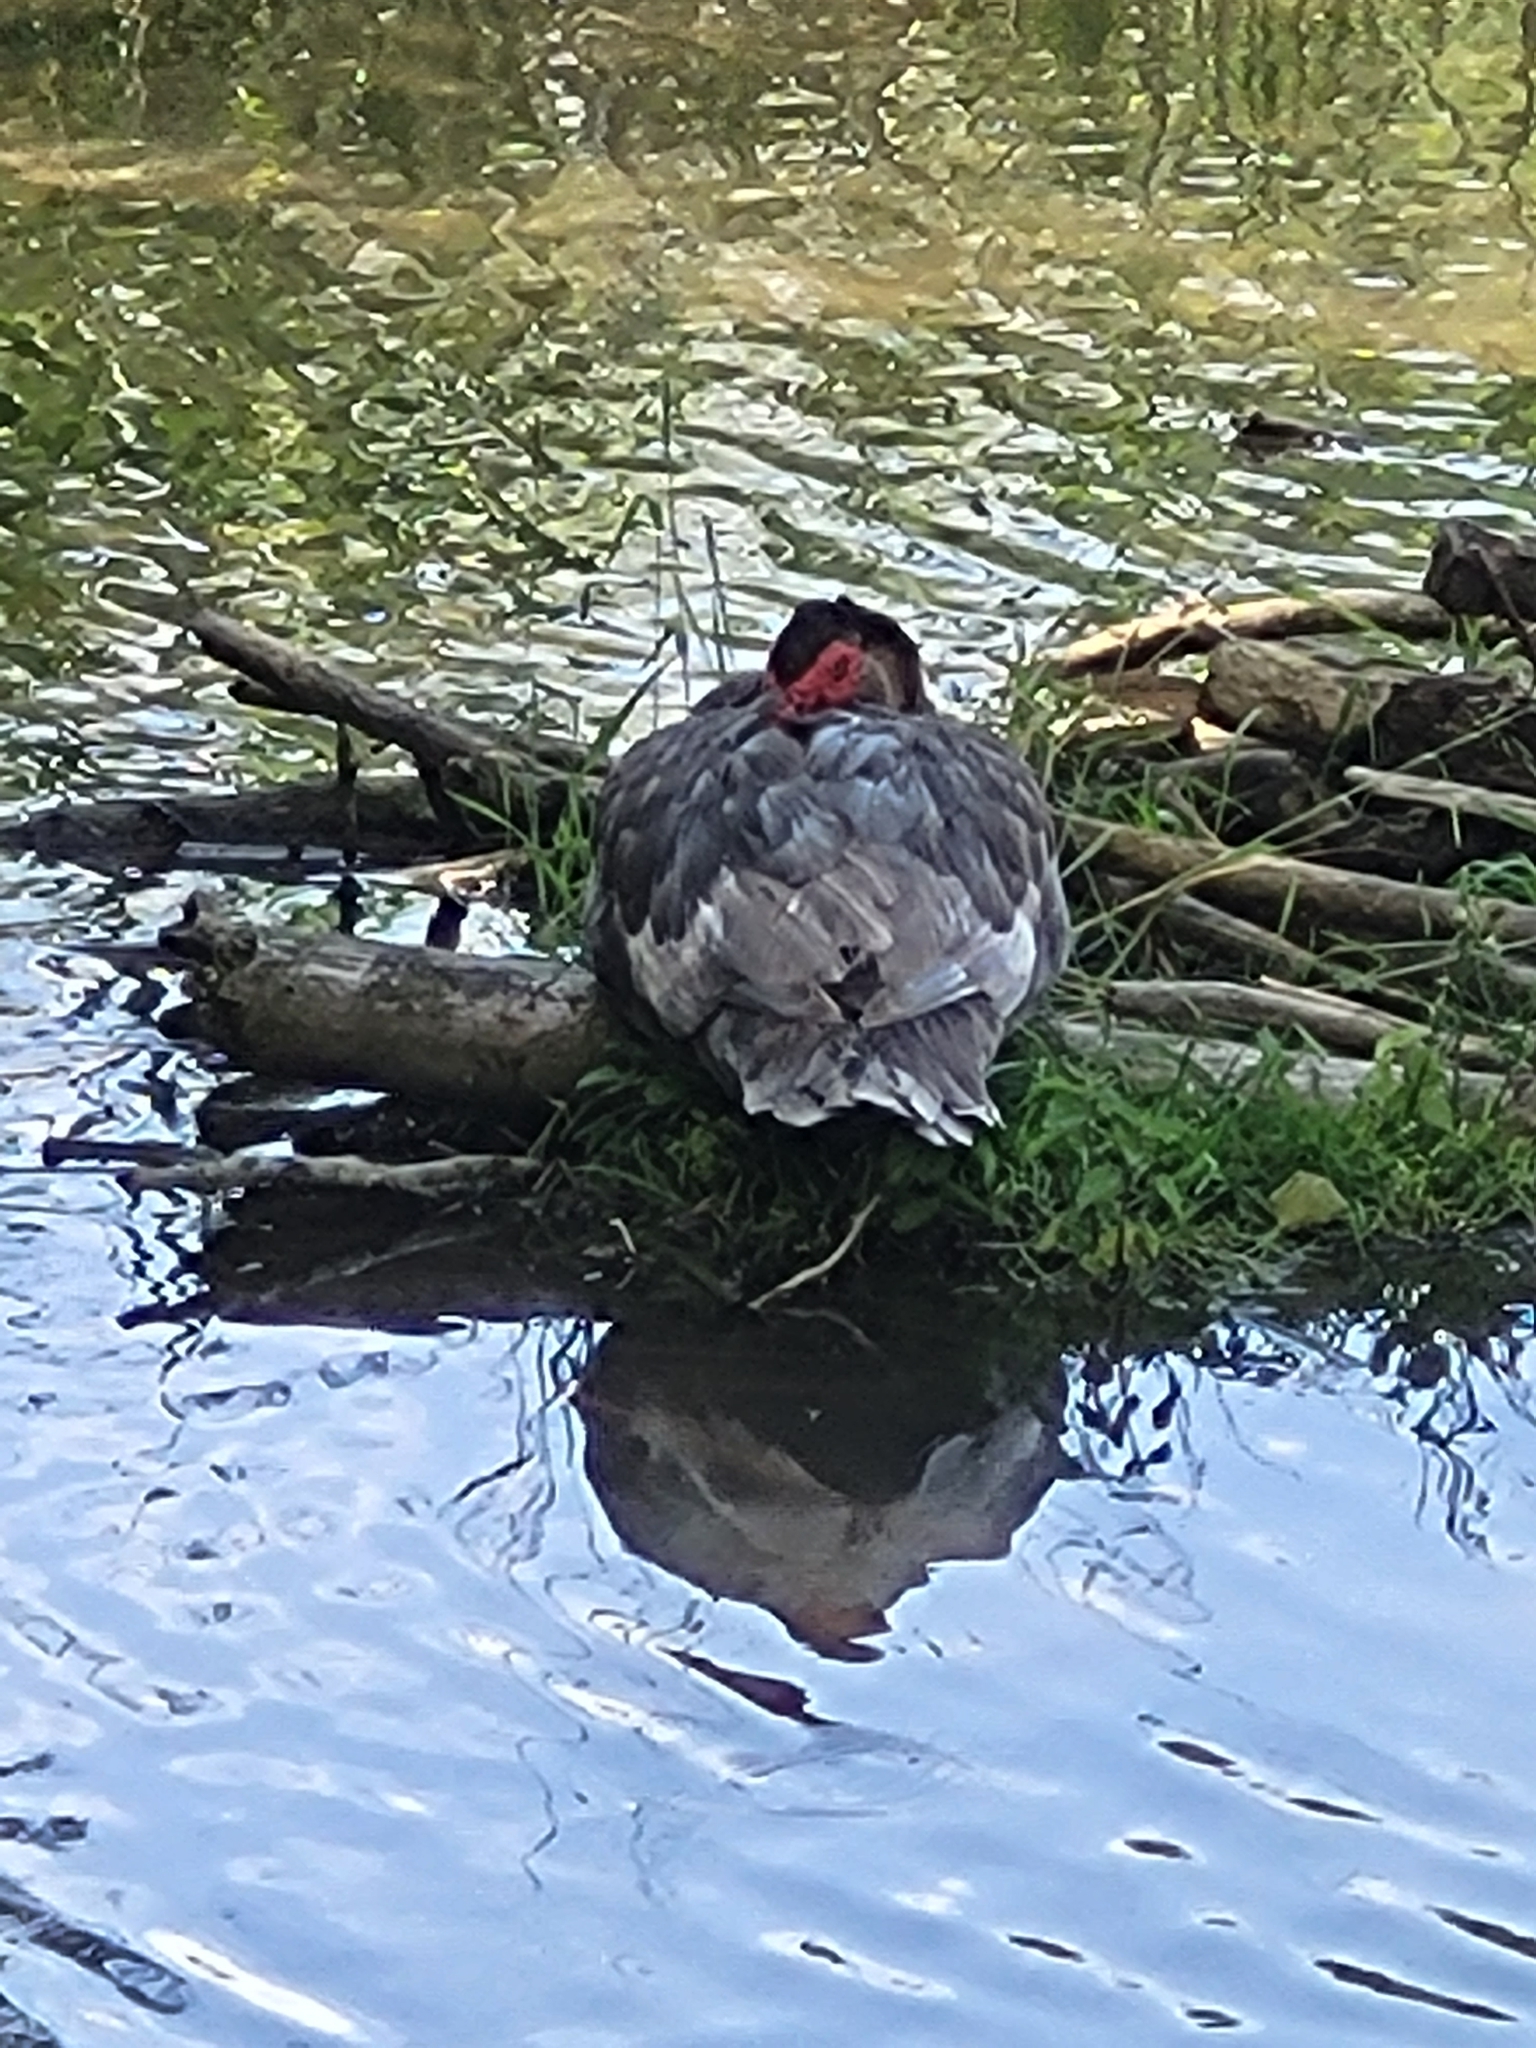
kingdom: Animalia
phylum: Chordata
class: Aves
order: Anseriformes
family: Anatidae
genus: Cairina
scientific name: Cairina moschata
